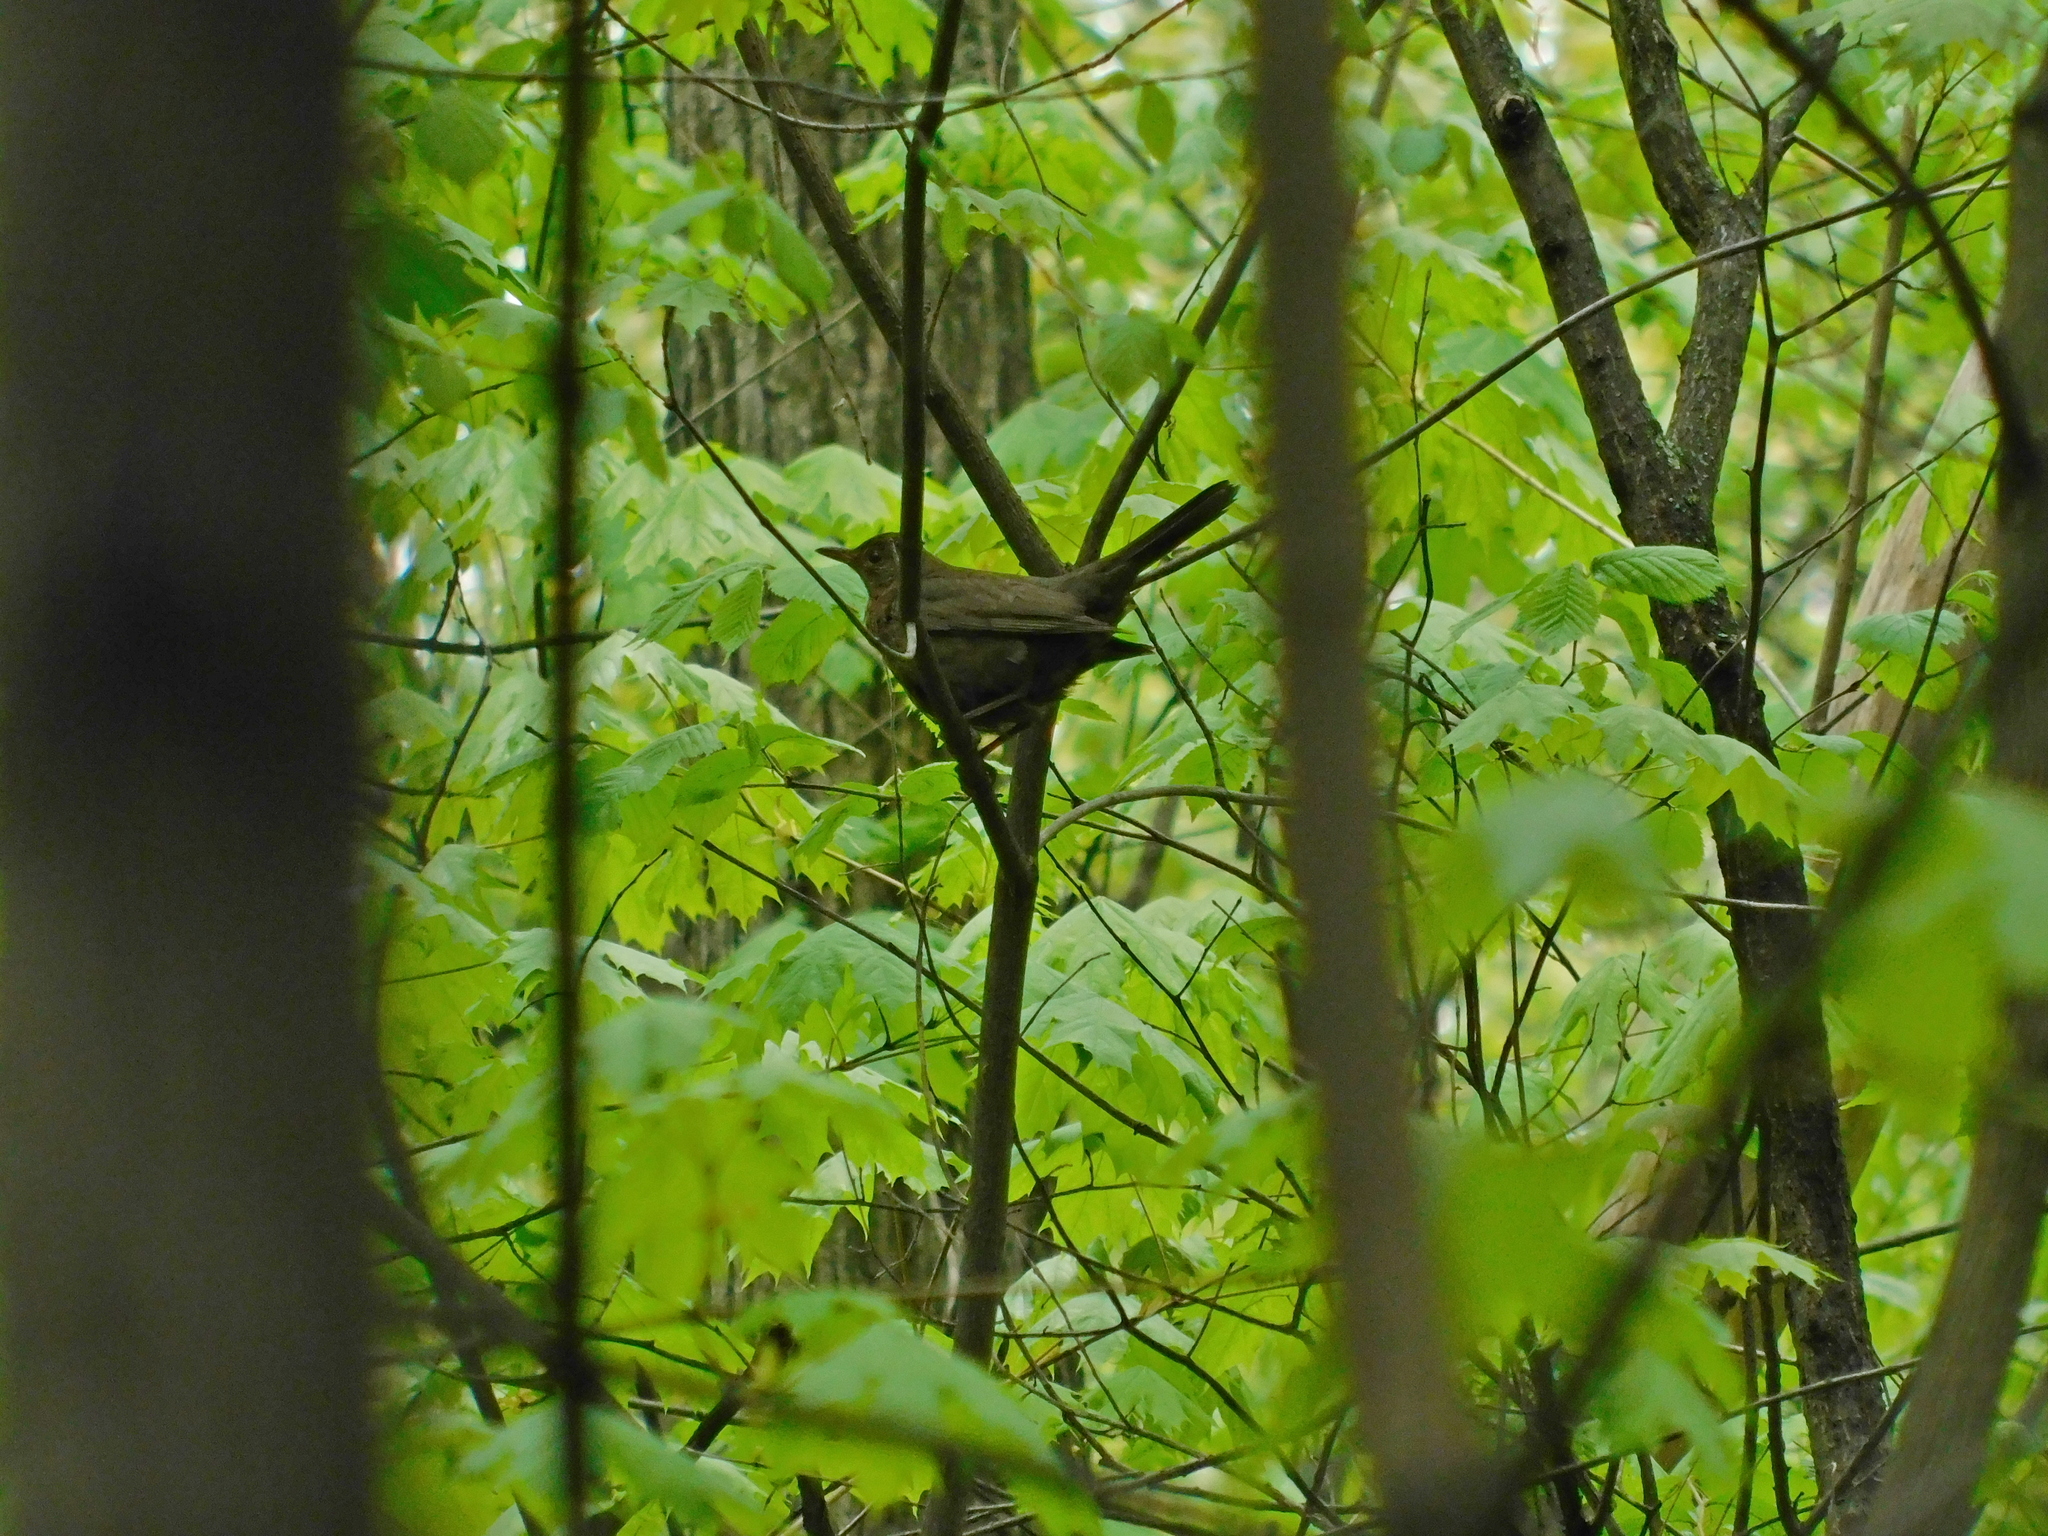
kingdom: Animalia
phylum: Chordata
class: Aves
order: Passeriformes
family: Turdidae
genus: Turdus
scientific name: Turdus merula
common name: Common blackbird
